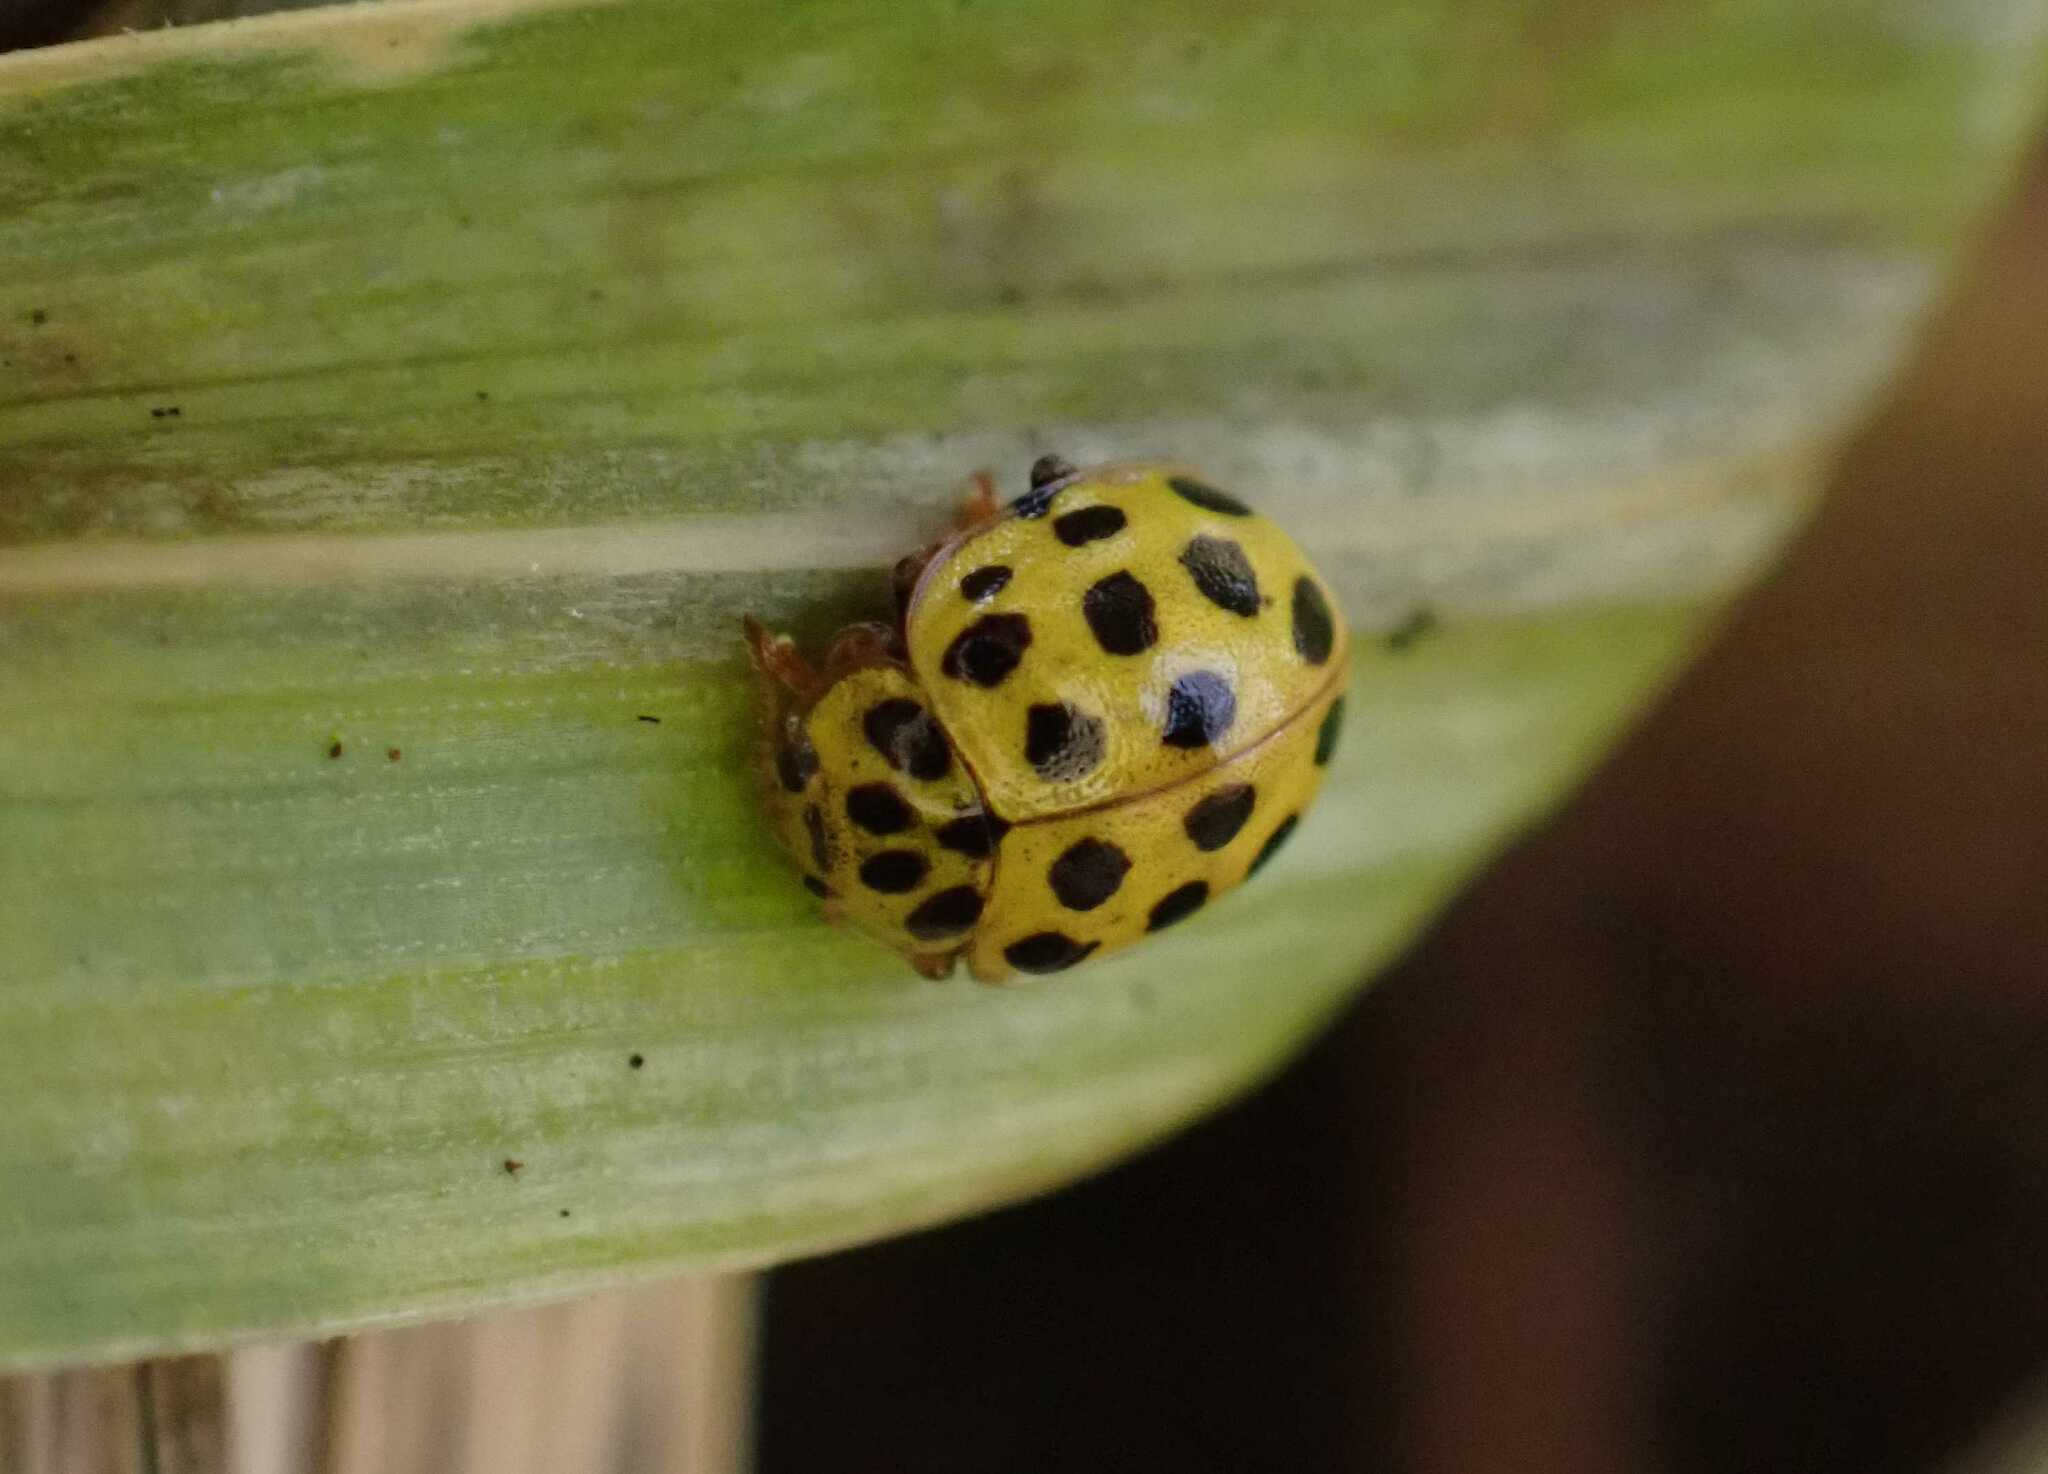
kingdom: Animalia
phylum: Arthropoda
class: Insecta
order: Coleoptera
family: Coccinellidae
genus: Psyllobora
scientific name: Psyllobora vigintiduopunctata
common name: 22-spot ladybird
